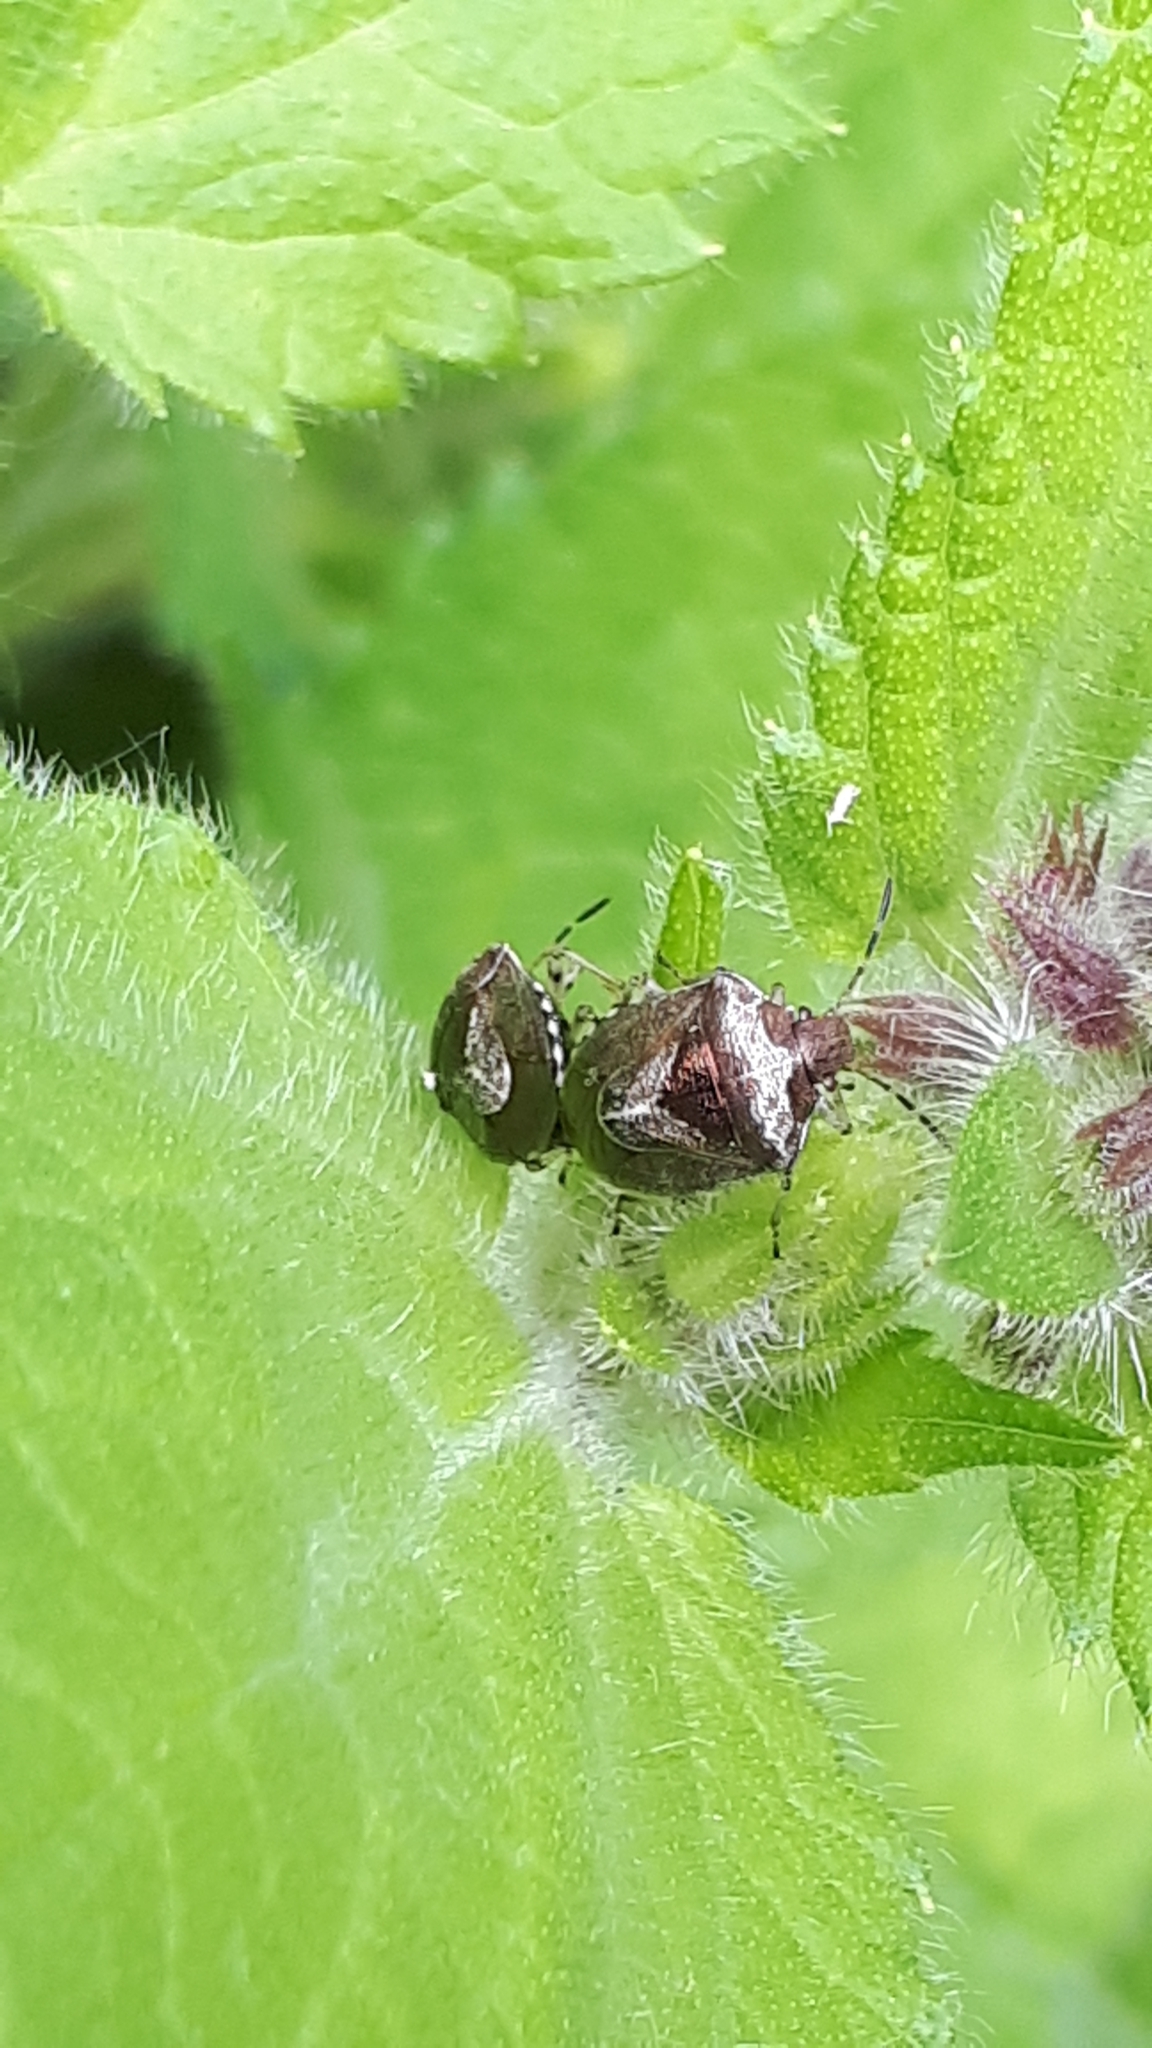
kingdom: Animalia
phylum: Arthropoda
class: Insecta
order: Hemiptera
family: Pentatomidae
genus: Eysarcoris
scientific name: Eysarcoris venustissimus
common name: Woundwort shieldbug
